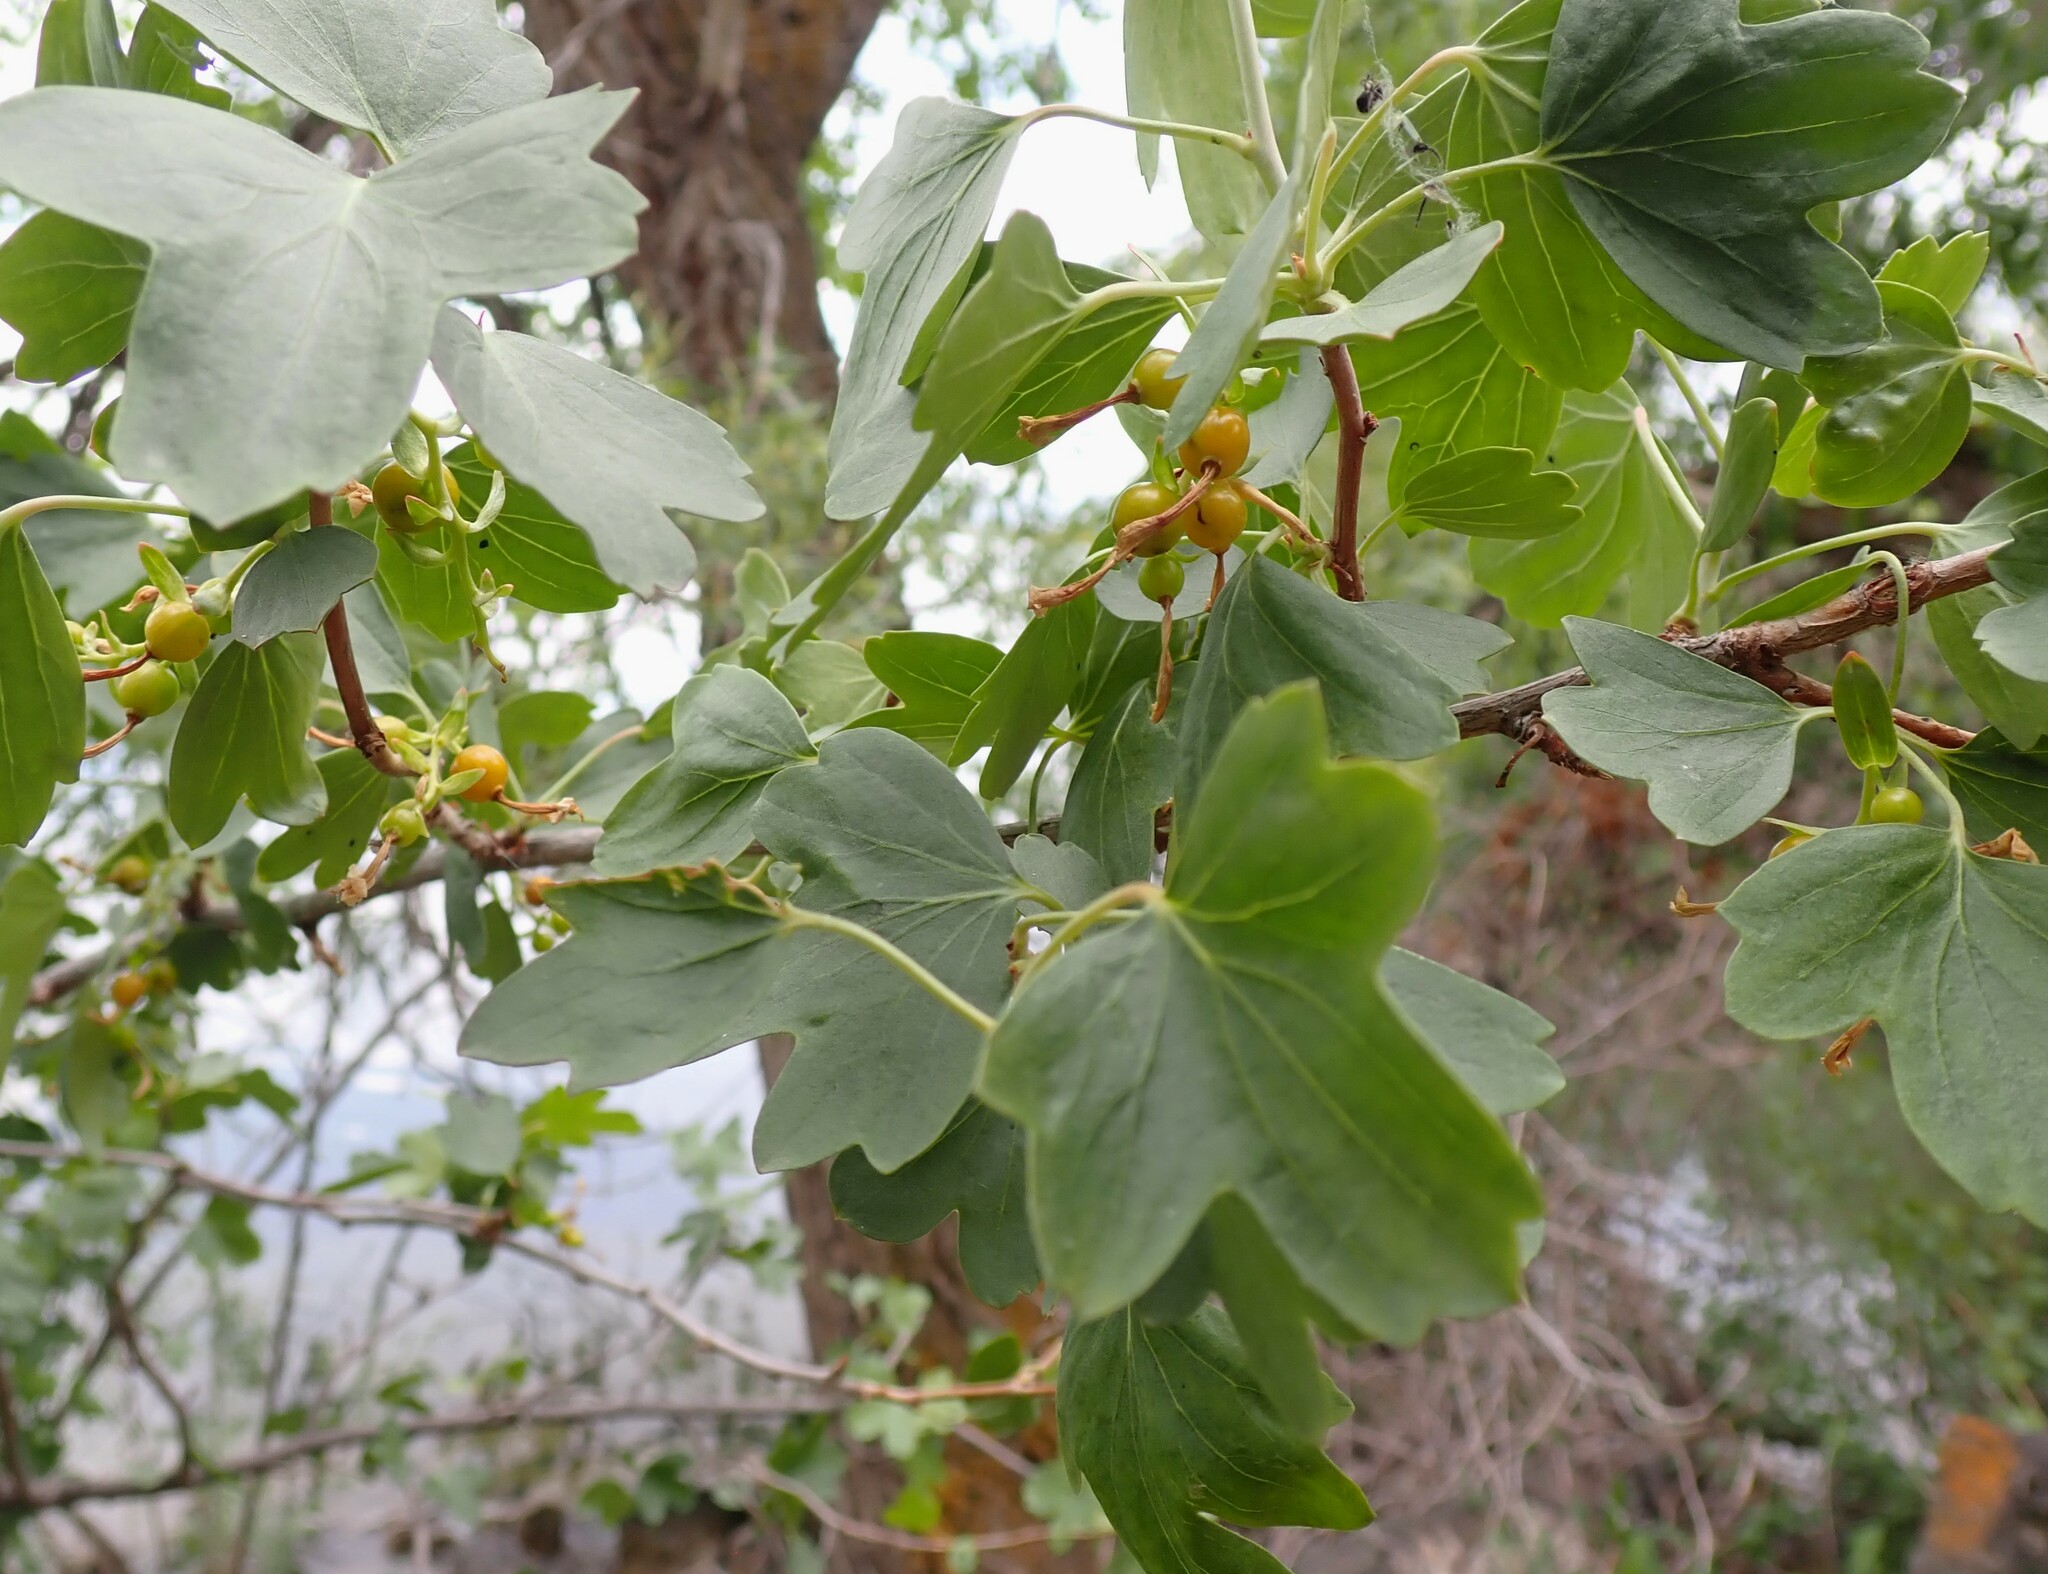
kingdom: Plantae
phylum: Tracheophyta
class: Magnoliopsida
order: Saxifragales
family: Grossulariaceae
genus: Ribes
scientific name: Ribes aureum
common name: Golden currant
